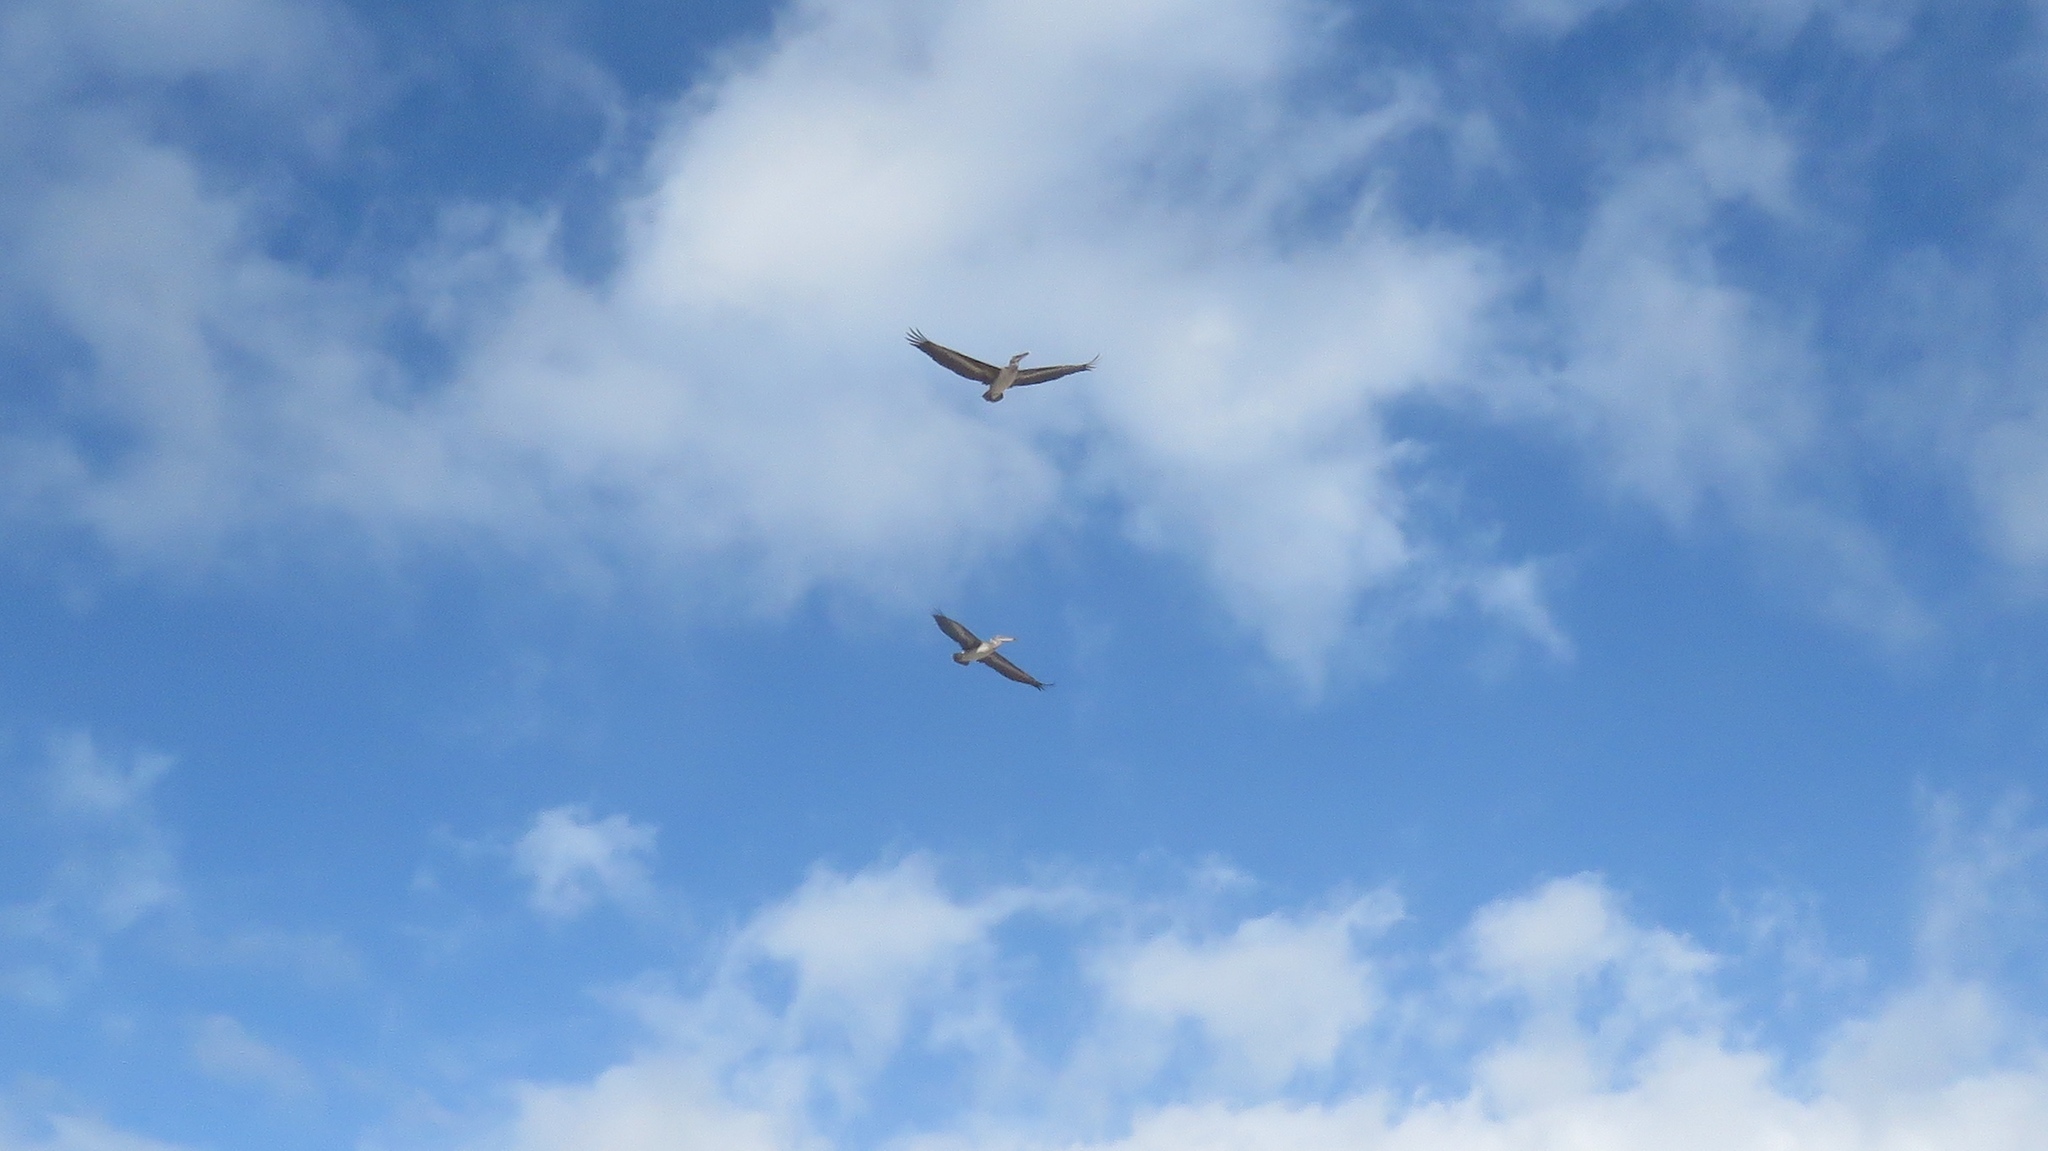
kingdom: Animalia
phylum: Chordata
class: Aves
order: Pelecaniformes
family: Pelecanidae
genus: Pelecanus
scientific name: Pelecanus occidentalis
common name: Brown pelican
